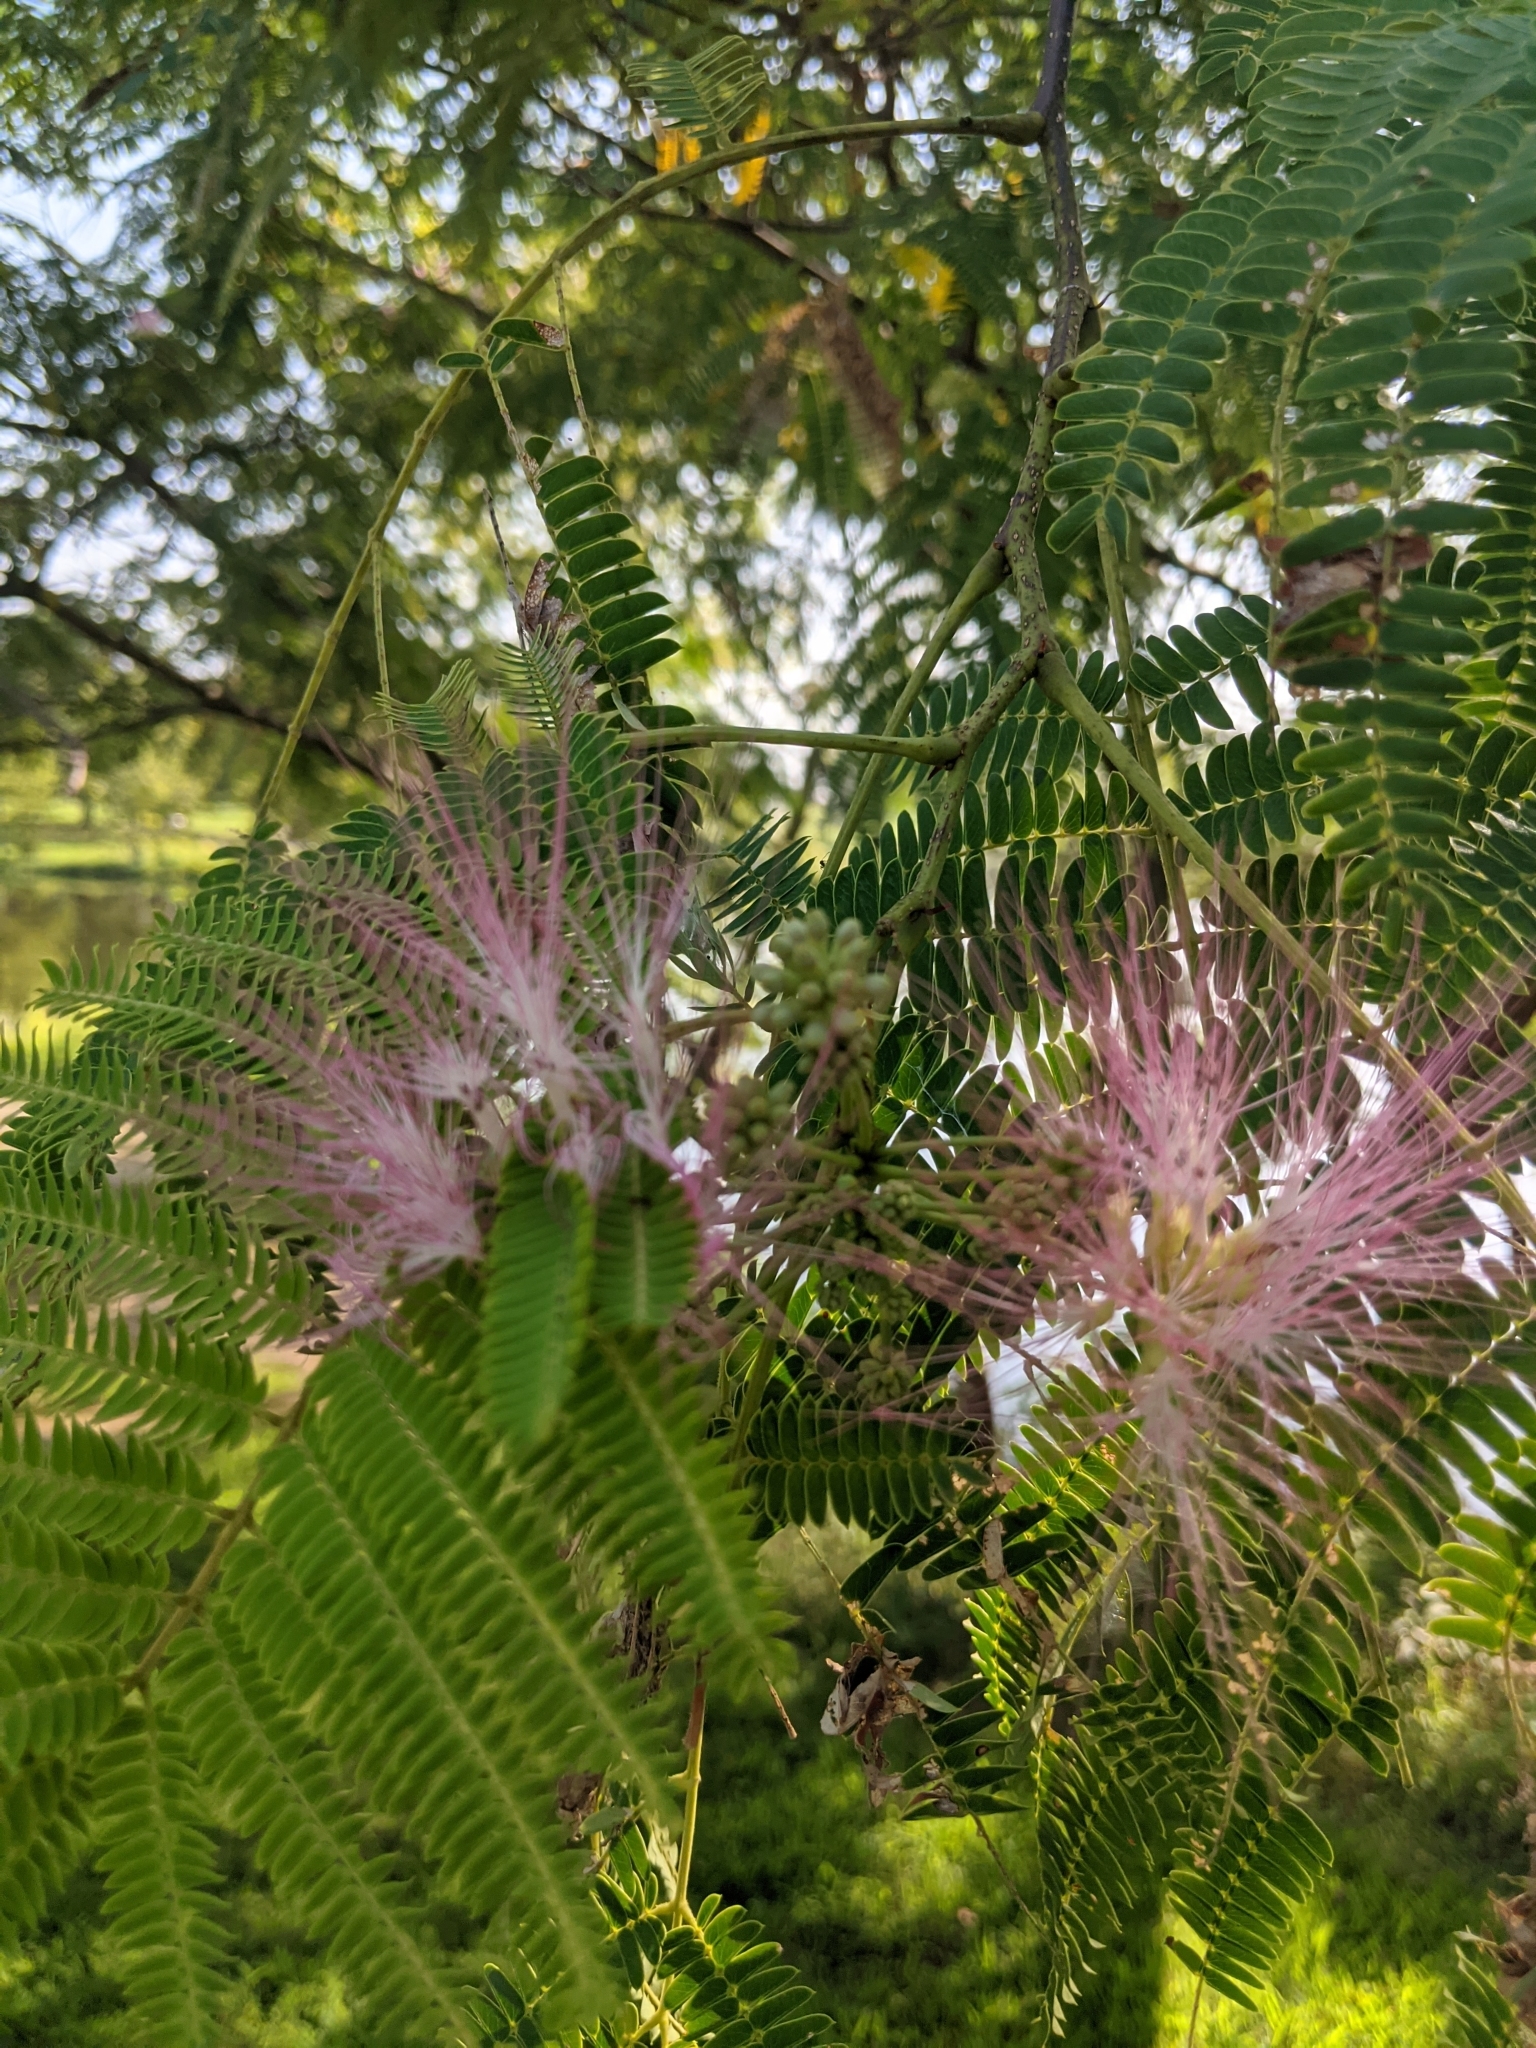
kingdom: Plantae
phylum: Tracheophyta
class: Magnoliopsida
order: Fabales
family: Fabaceae
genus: Albizia
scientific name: Albizia julibrissin
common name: Silktree
